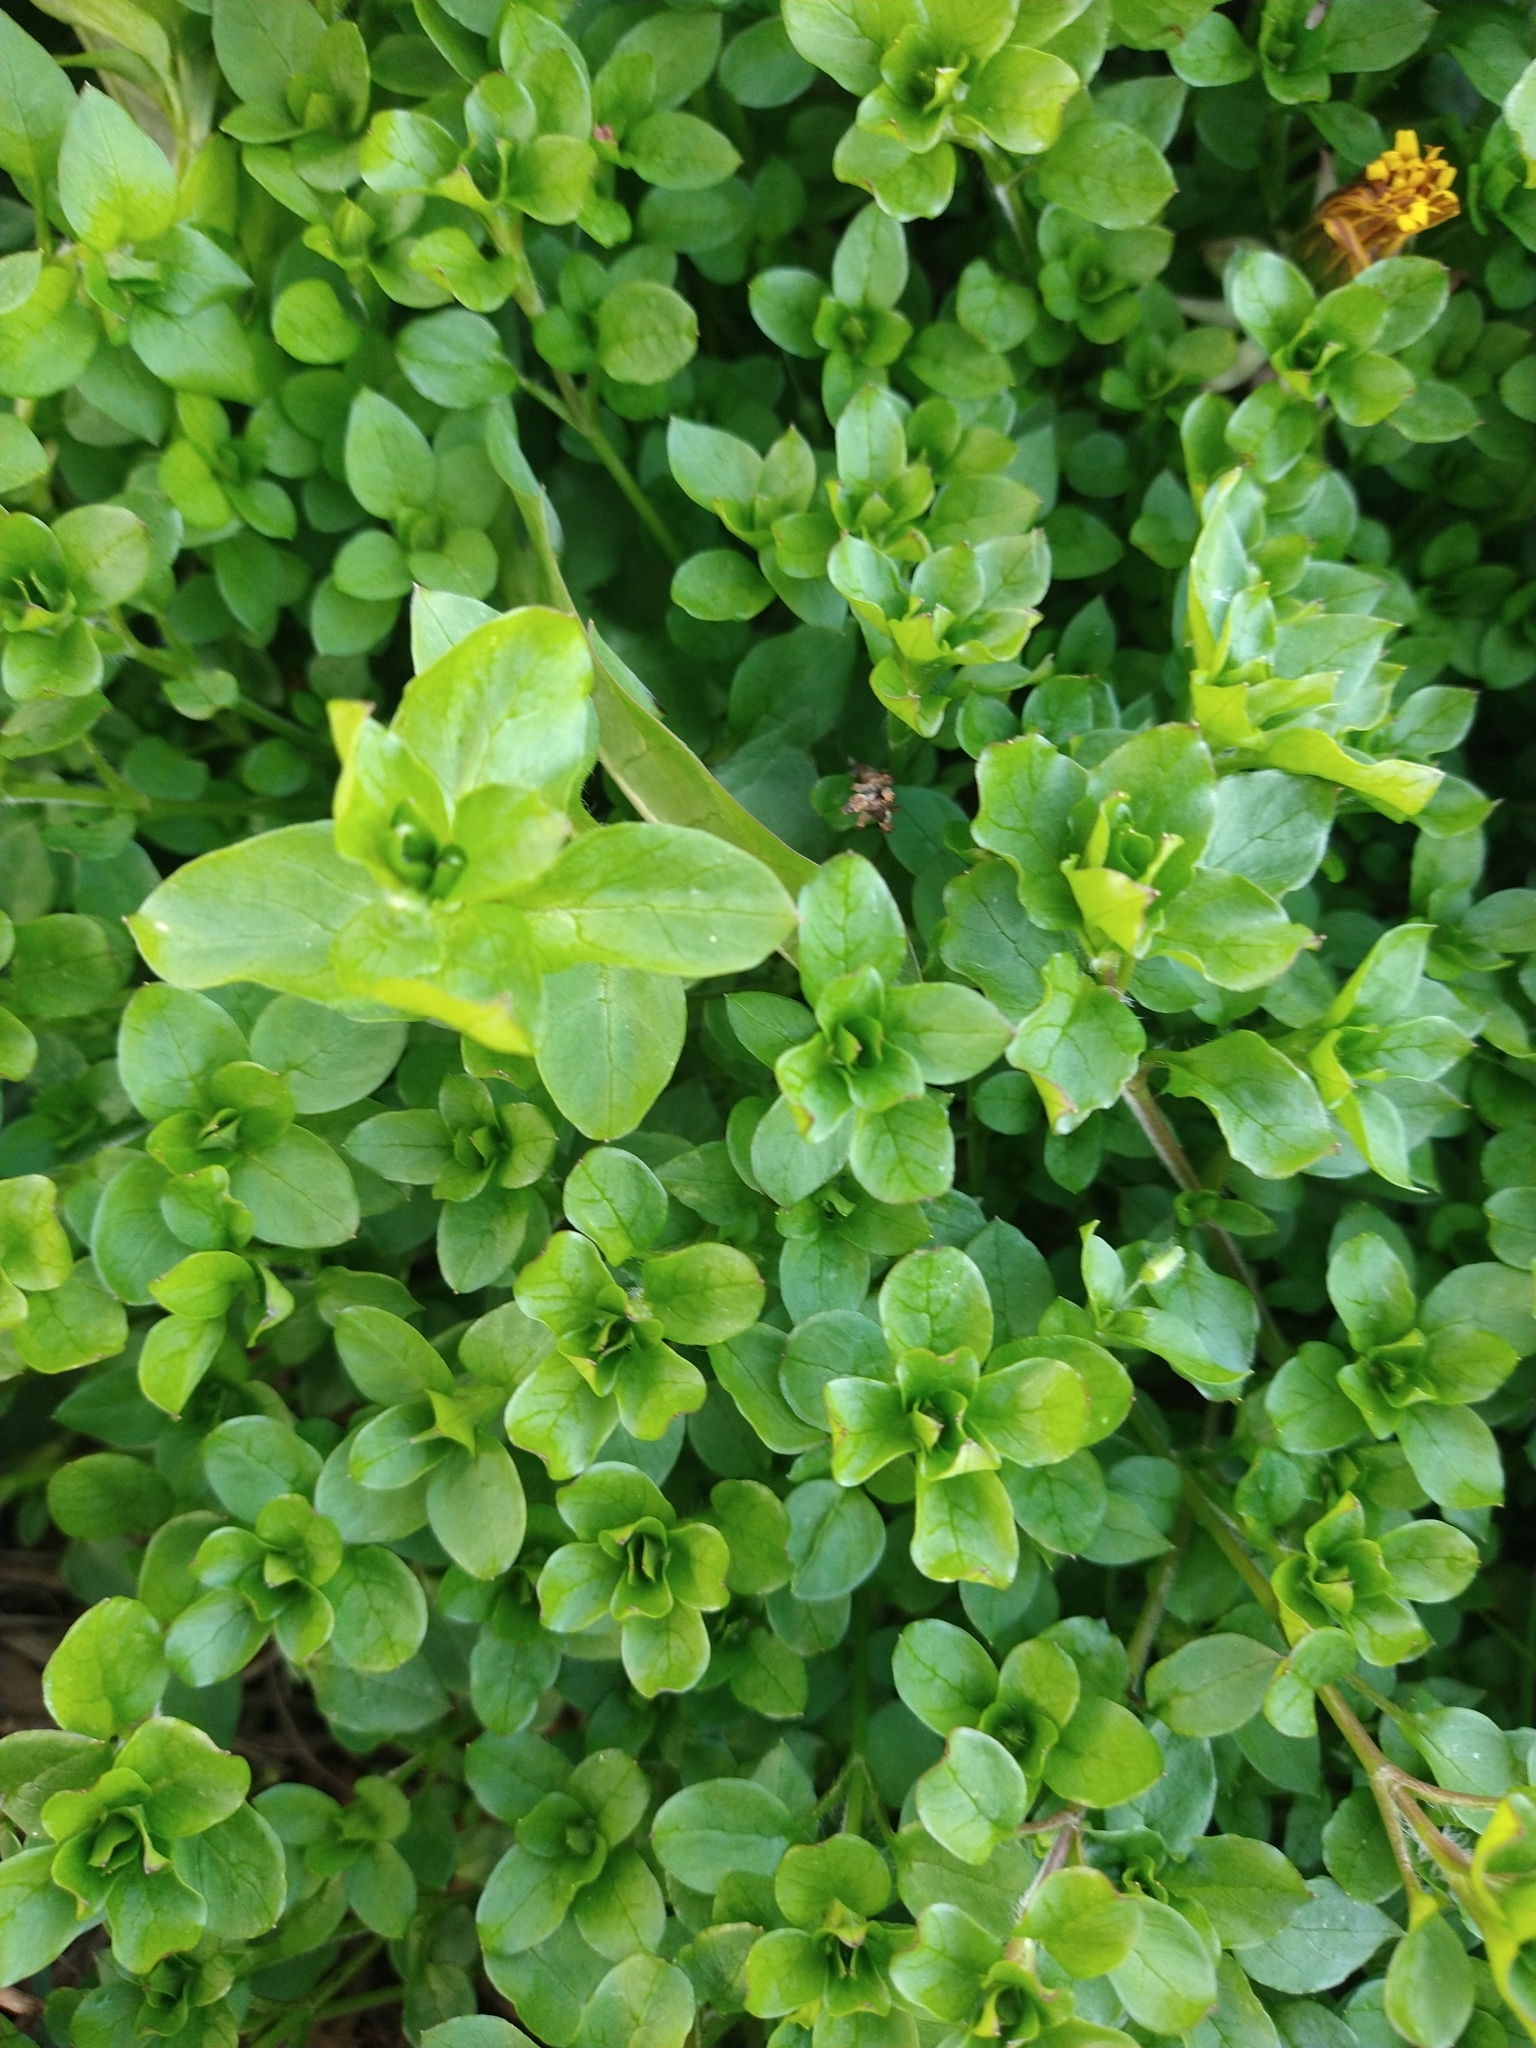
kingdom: Plantae
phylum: Tracheophyta
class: Magnoliopsida
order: Caryophyllales
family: Caryophyllaceae
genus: Stellaria
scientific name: Stellaria media
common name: Common chickweed
